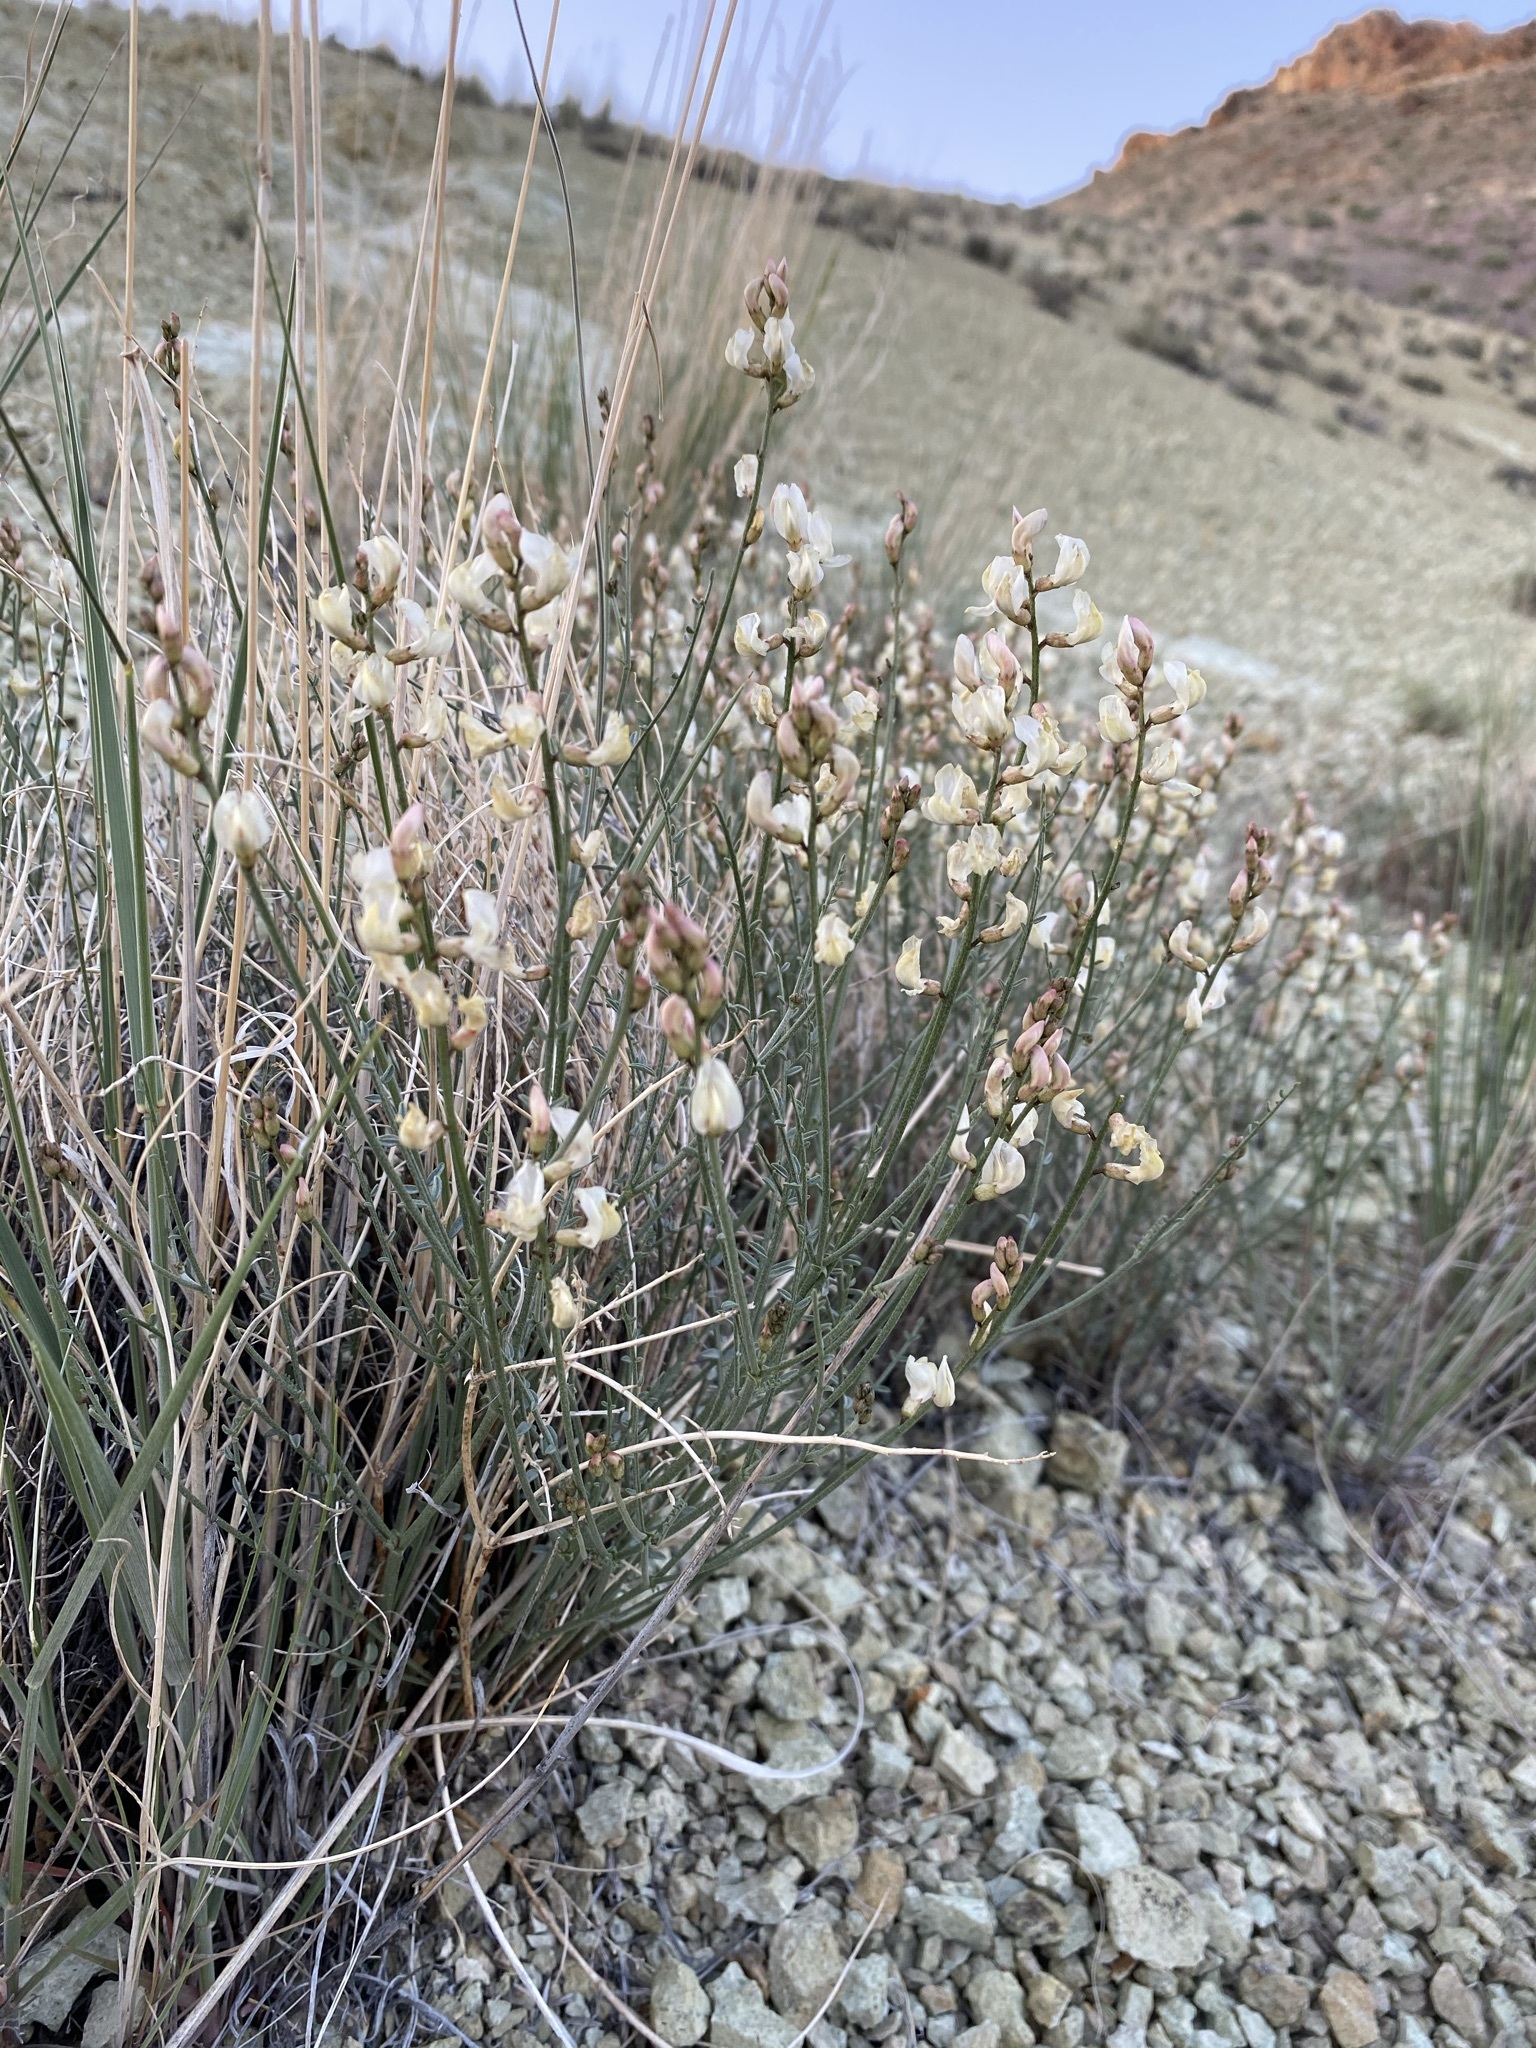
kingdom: Plantae
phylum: Tracheophyta
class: Magnoliopsida
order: Fabales
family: Fabaceae
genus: Astragalus
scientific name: Astragalus sterilis
